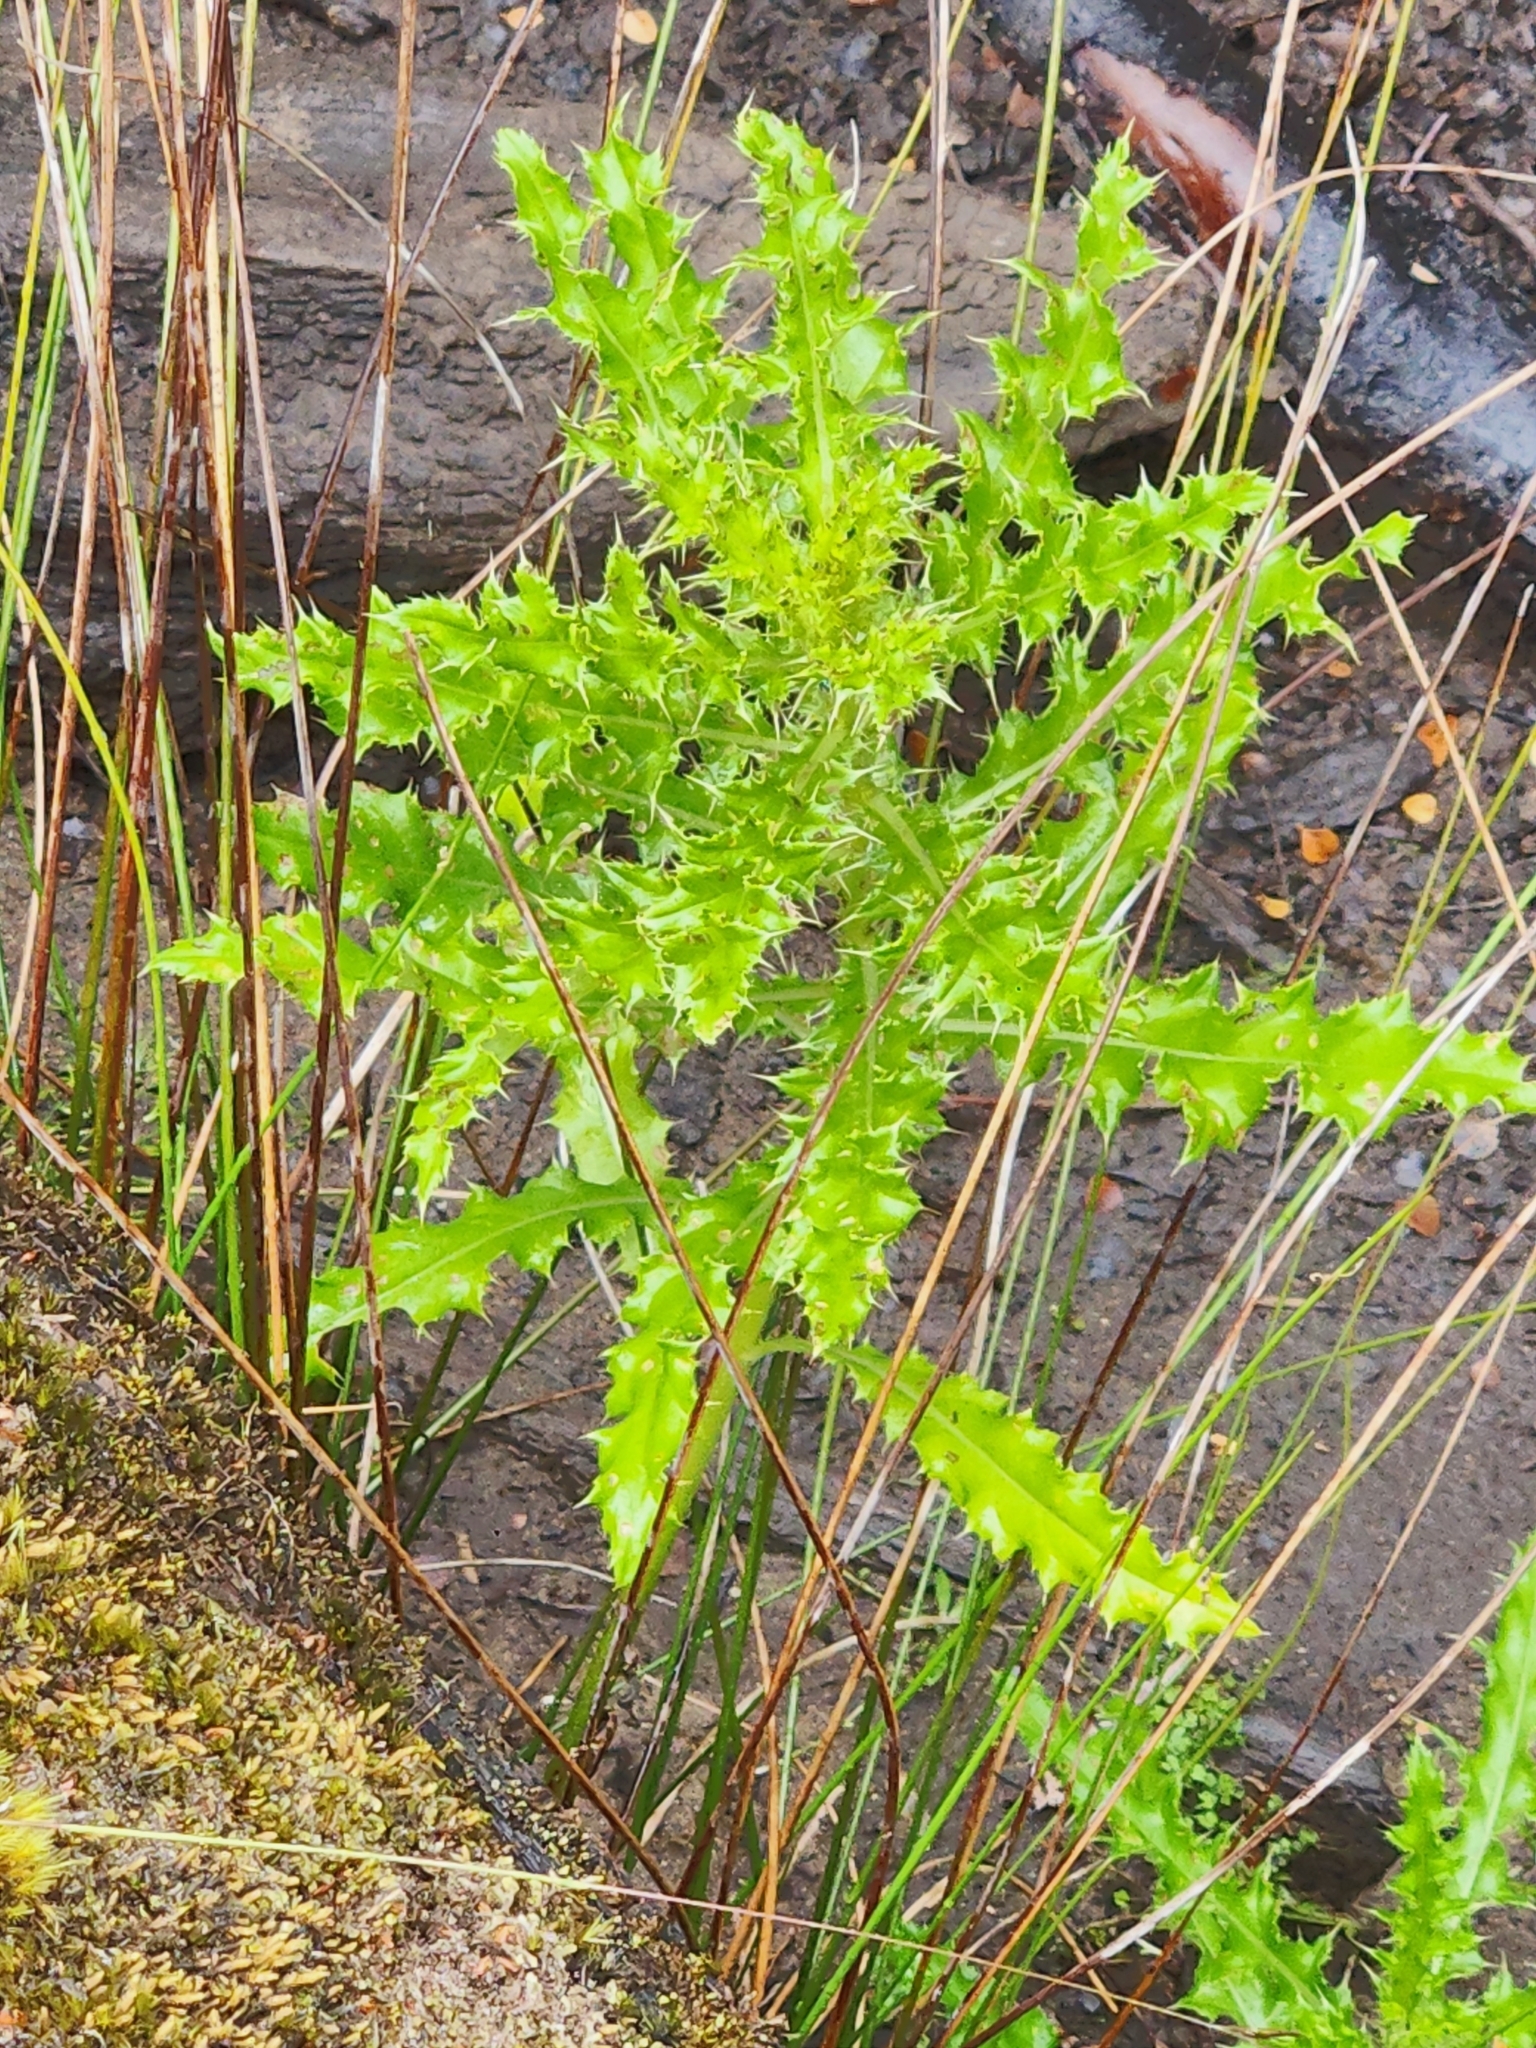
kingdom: Plantae
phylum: Tracheophyta
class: Magnoliopsida
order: Asterales
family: Asteraceae
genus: Cirsium
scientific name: Cirsium arvense
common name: Creeping thistle
